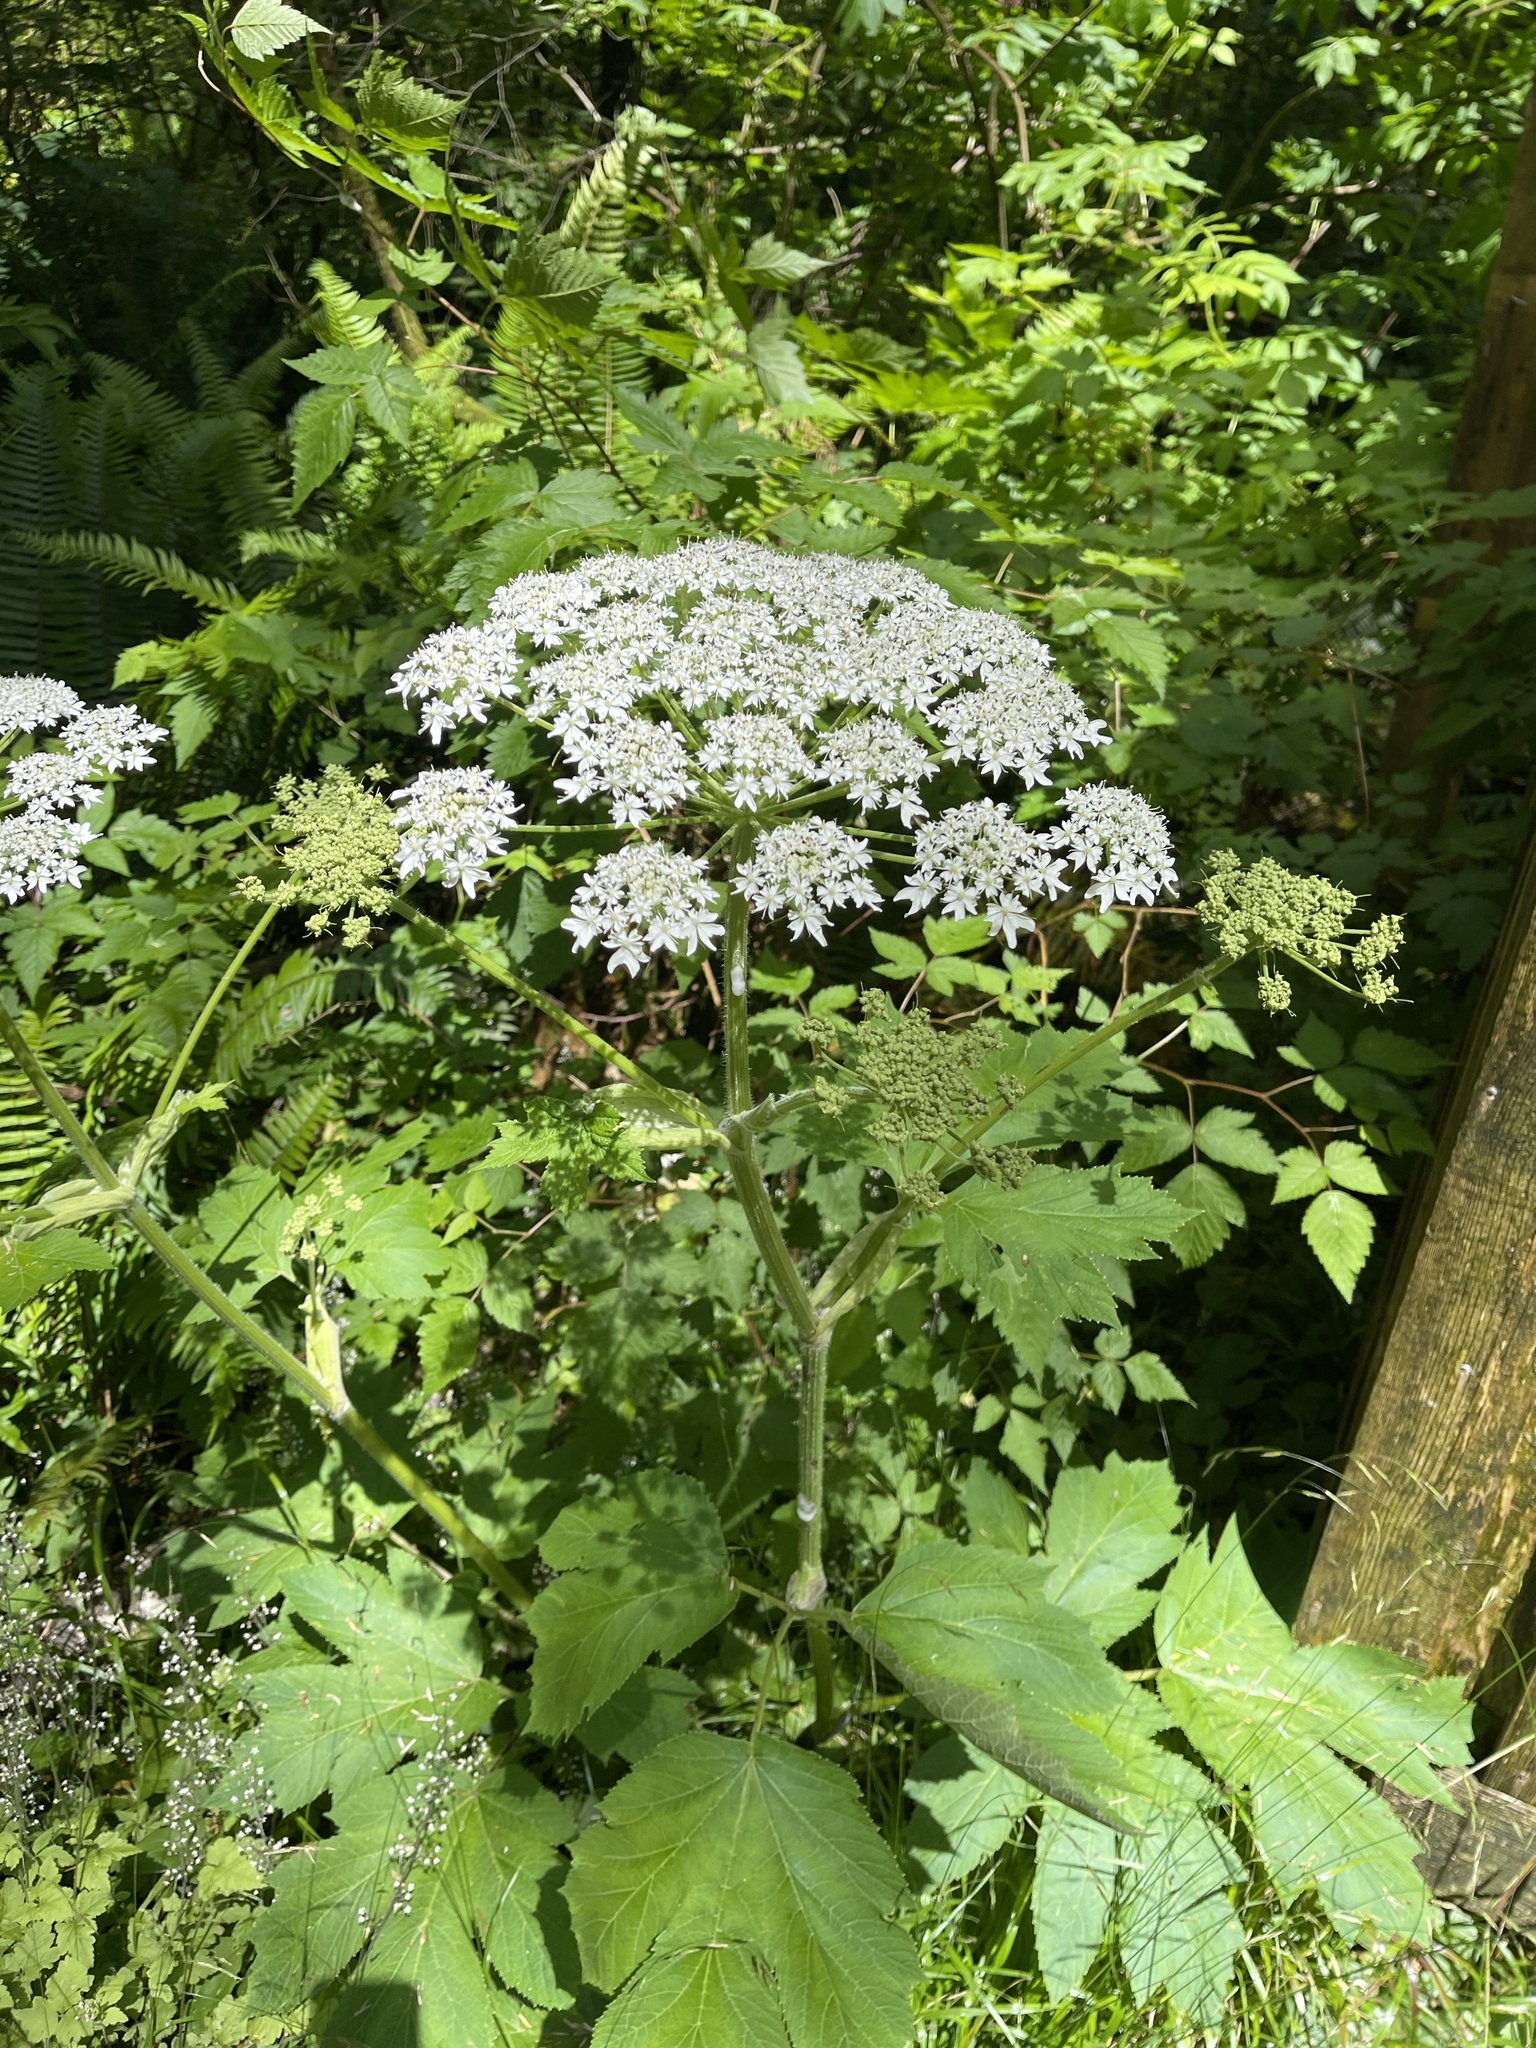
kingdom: Plantae
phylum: Tracheophyta
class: Magnoliopsida
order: Apiales
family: Apiaceae
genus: Heracleum
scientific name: Heracleum maximum
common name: American cow parsnip
